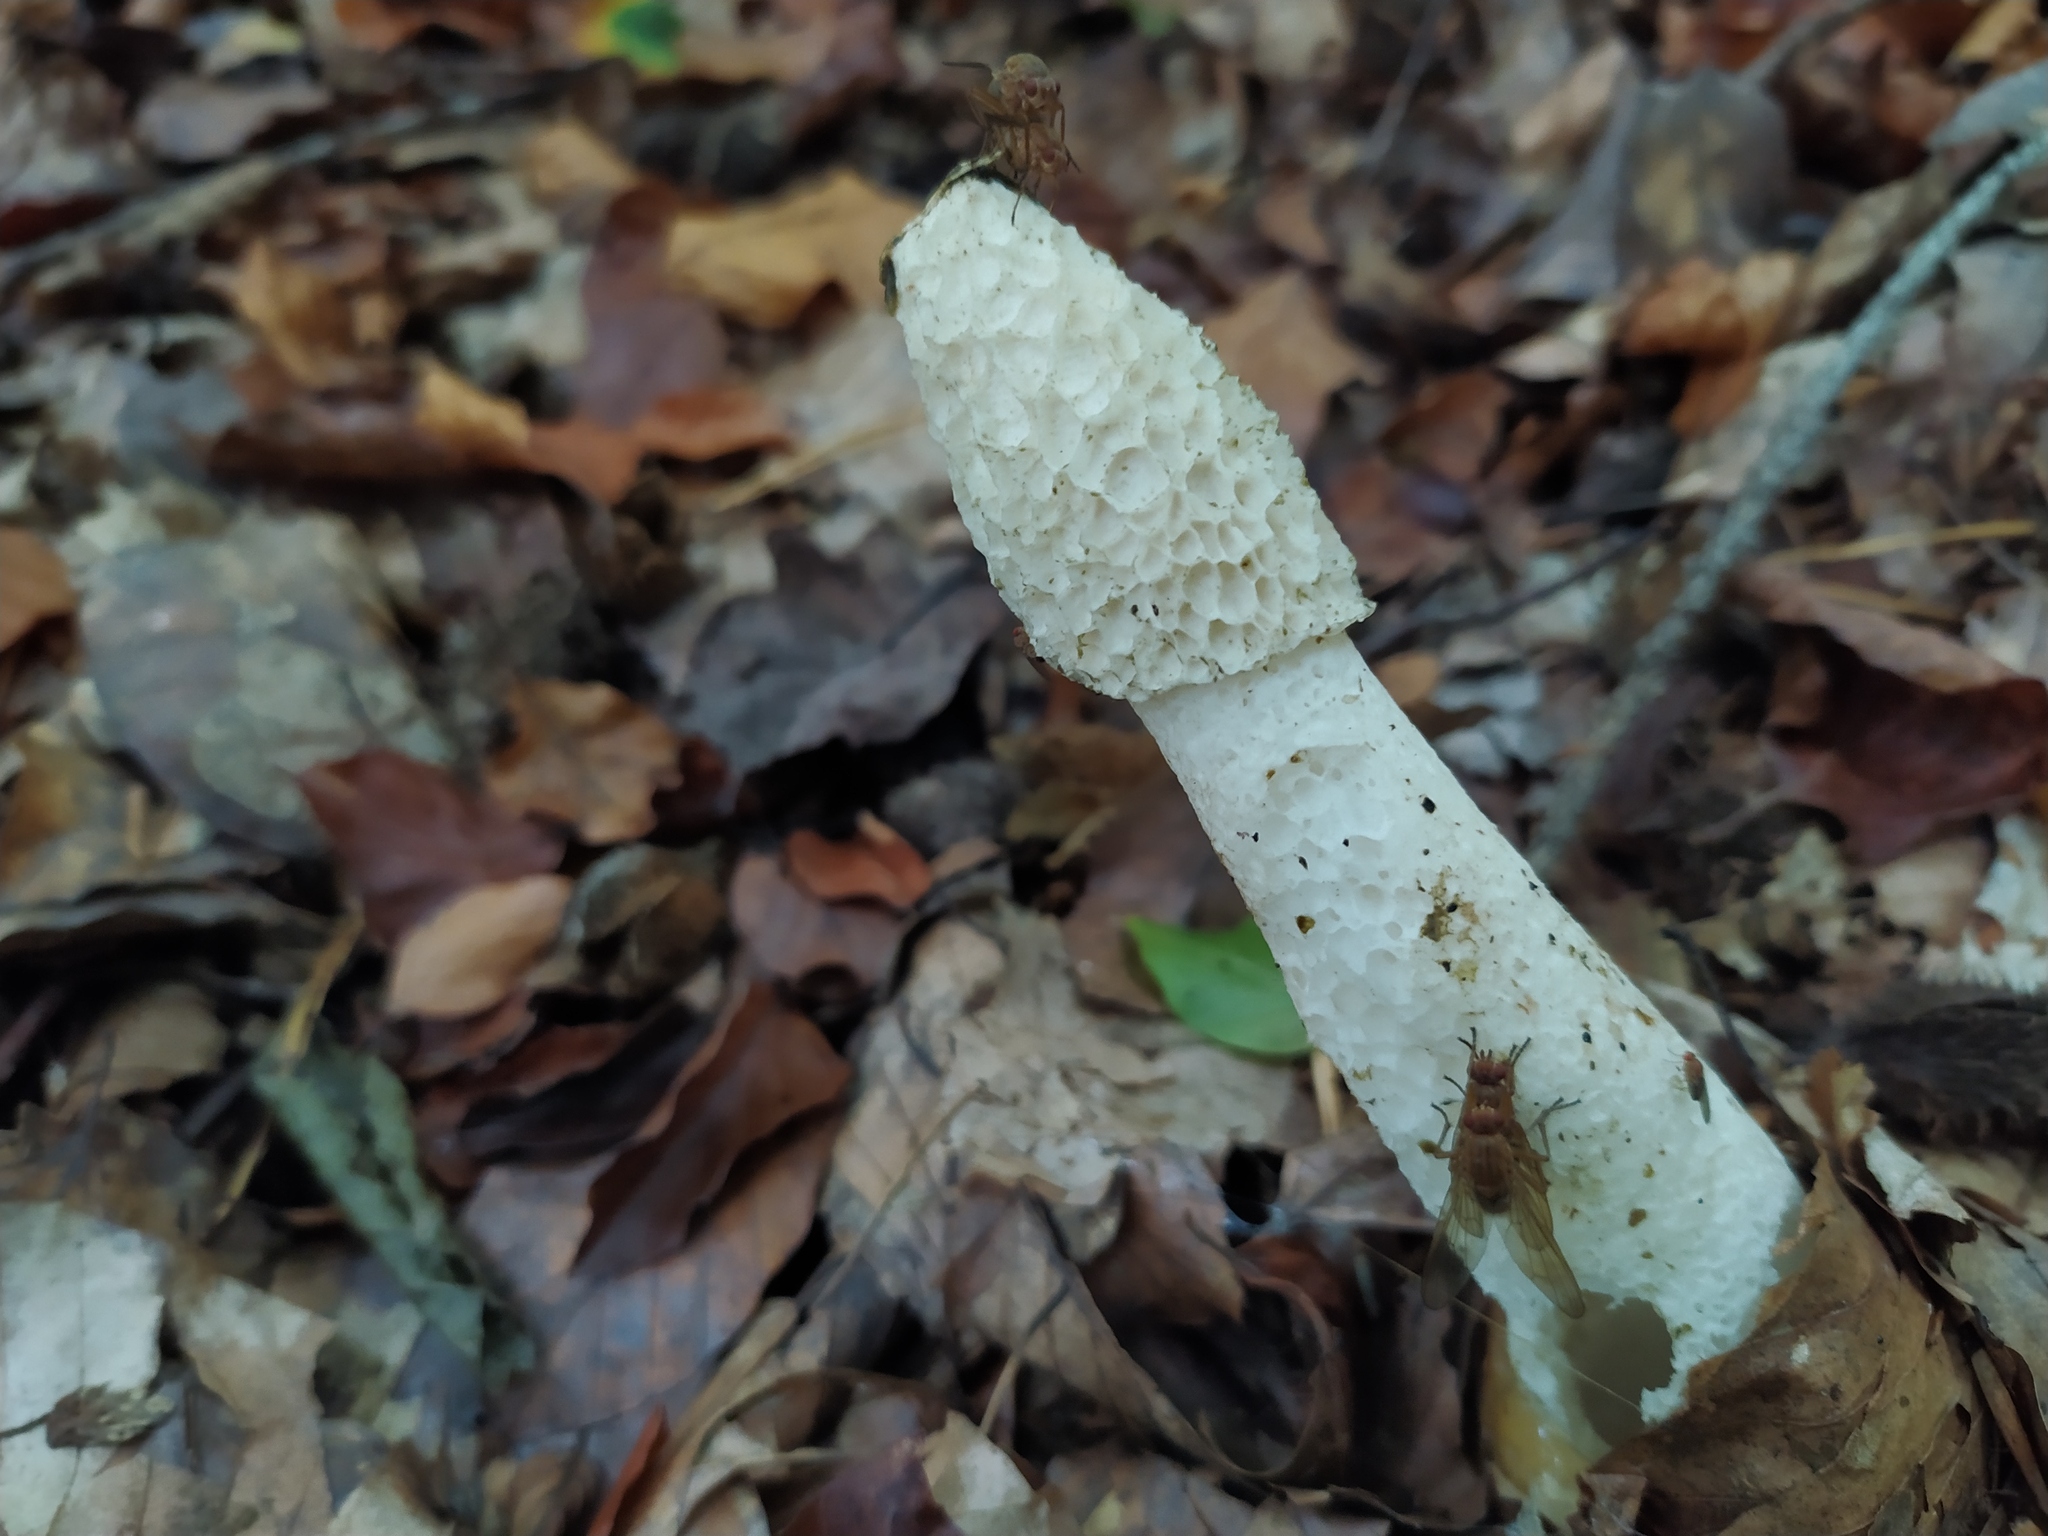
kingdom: Fungi
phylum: Basidiomycota
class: Agaricomycetes
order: Phallales
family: Phallaceae
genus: Phallus
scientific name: Phallus impudicus
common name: Common stinkhorn
